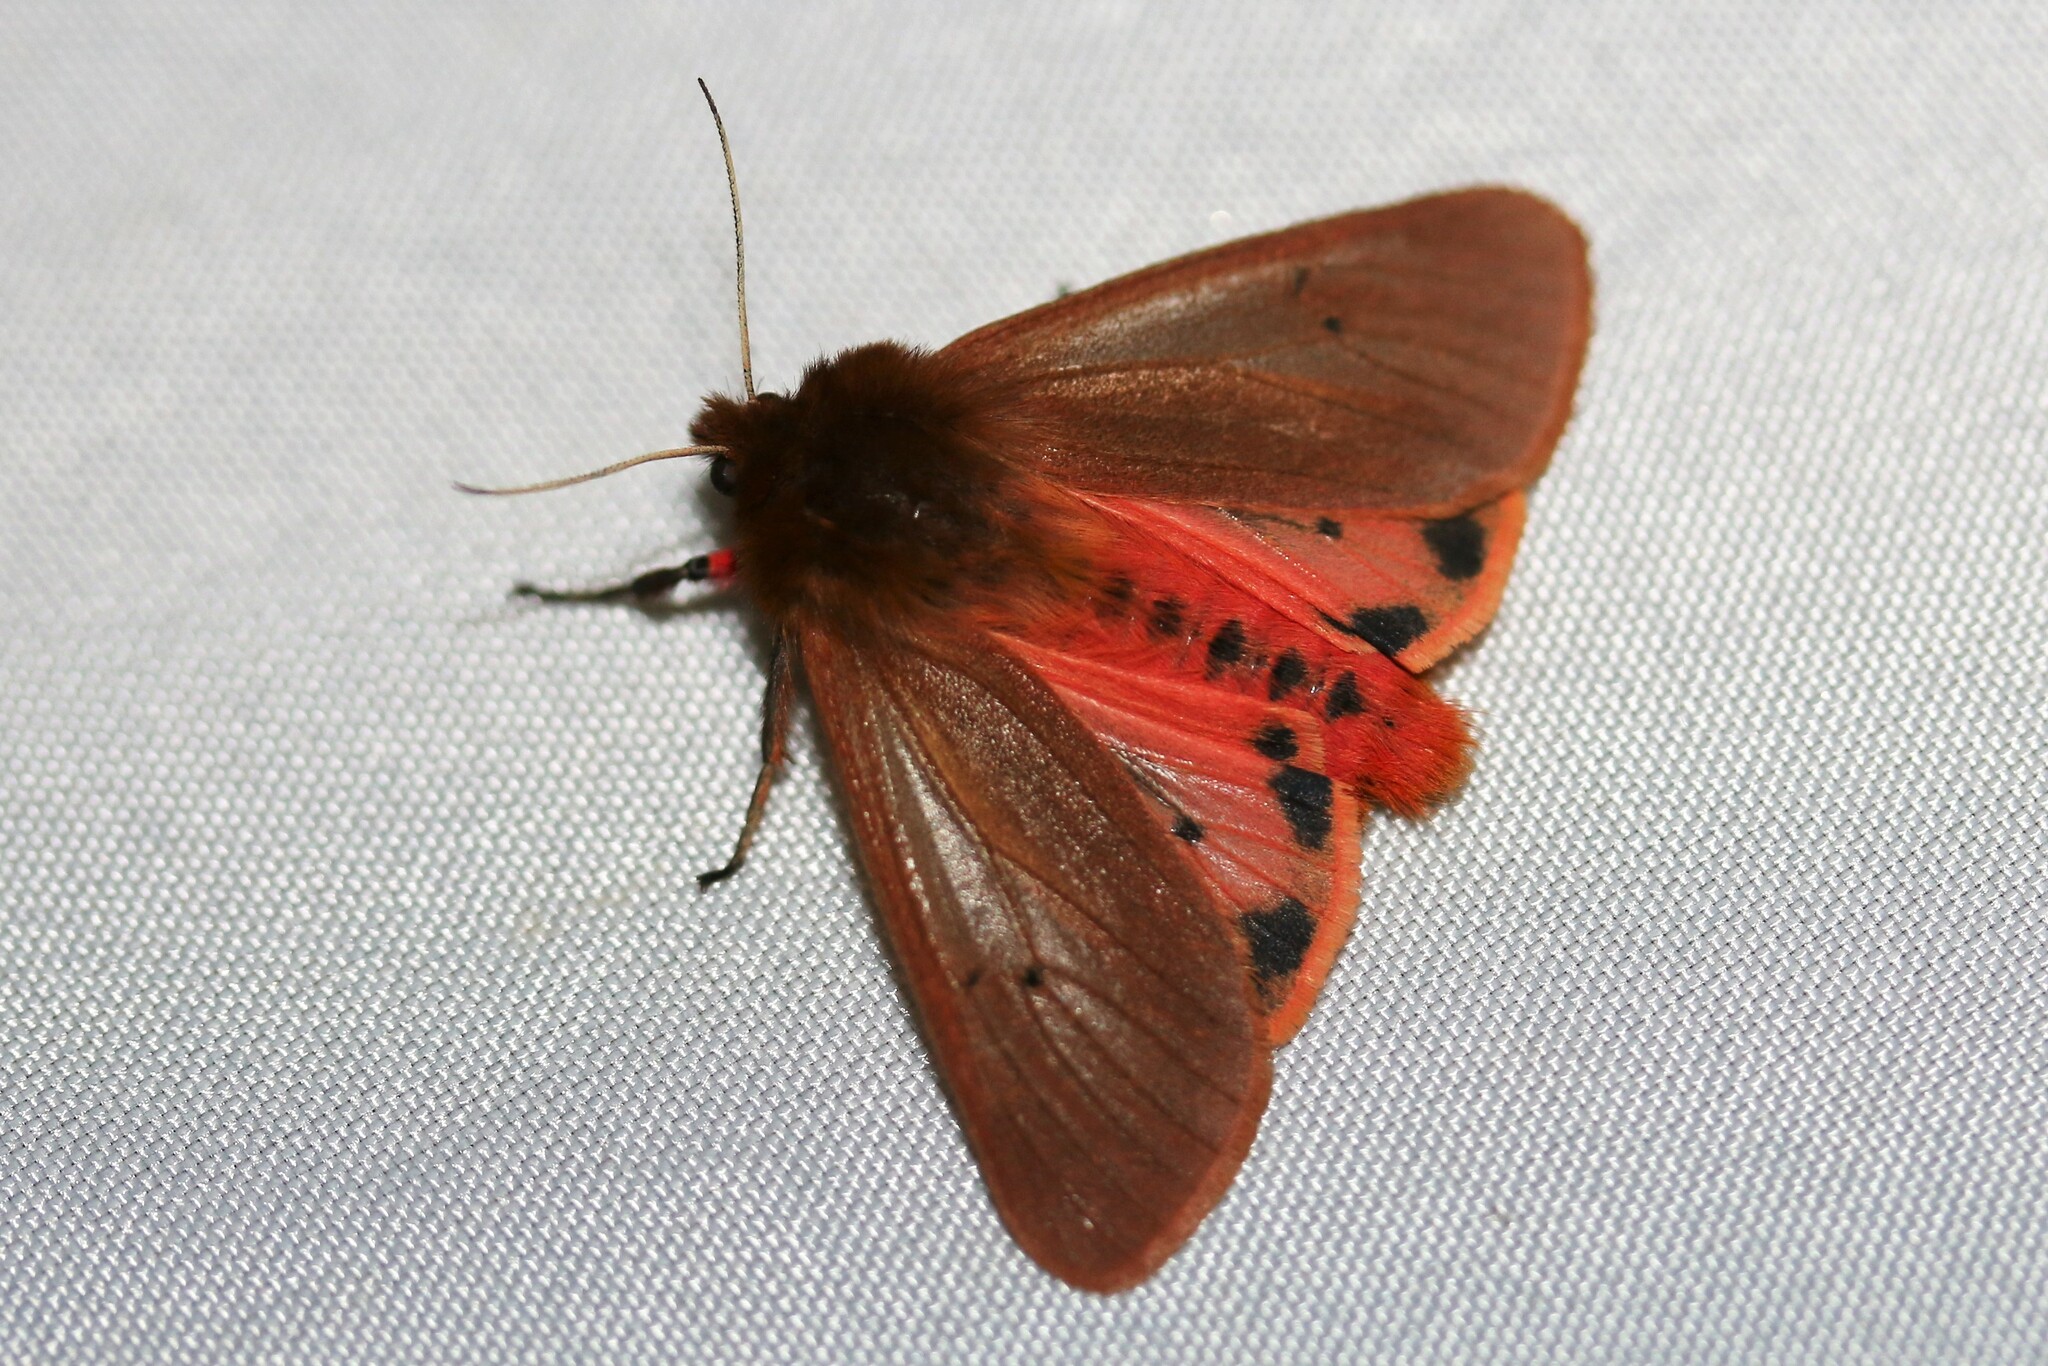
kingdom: Animalia
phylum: Arthropoda
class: Insecta
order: Lepidoptera
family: Erebidae
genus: Phragmatobia
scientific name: Phragmatobia fuliginosa
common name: Ruby tiger
